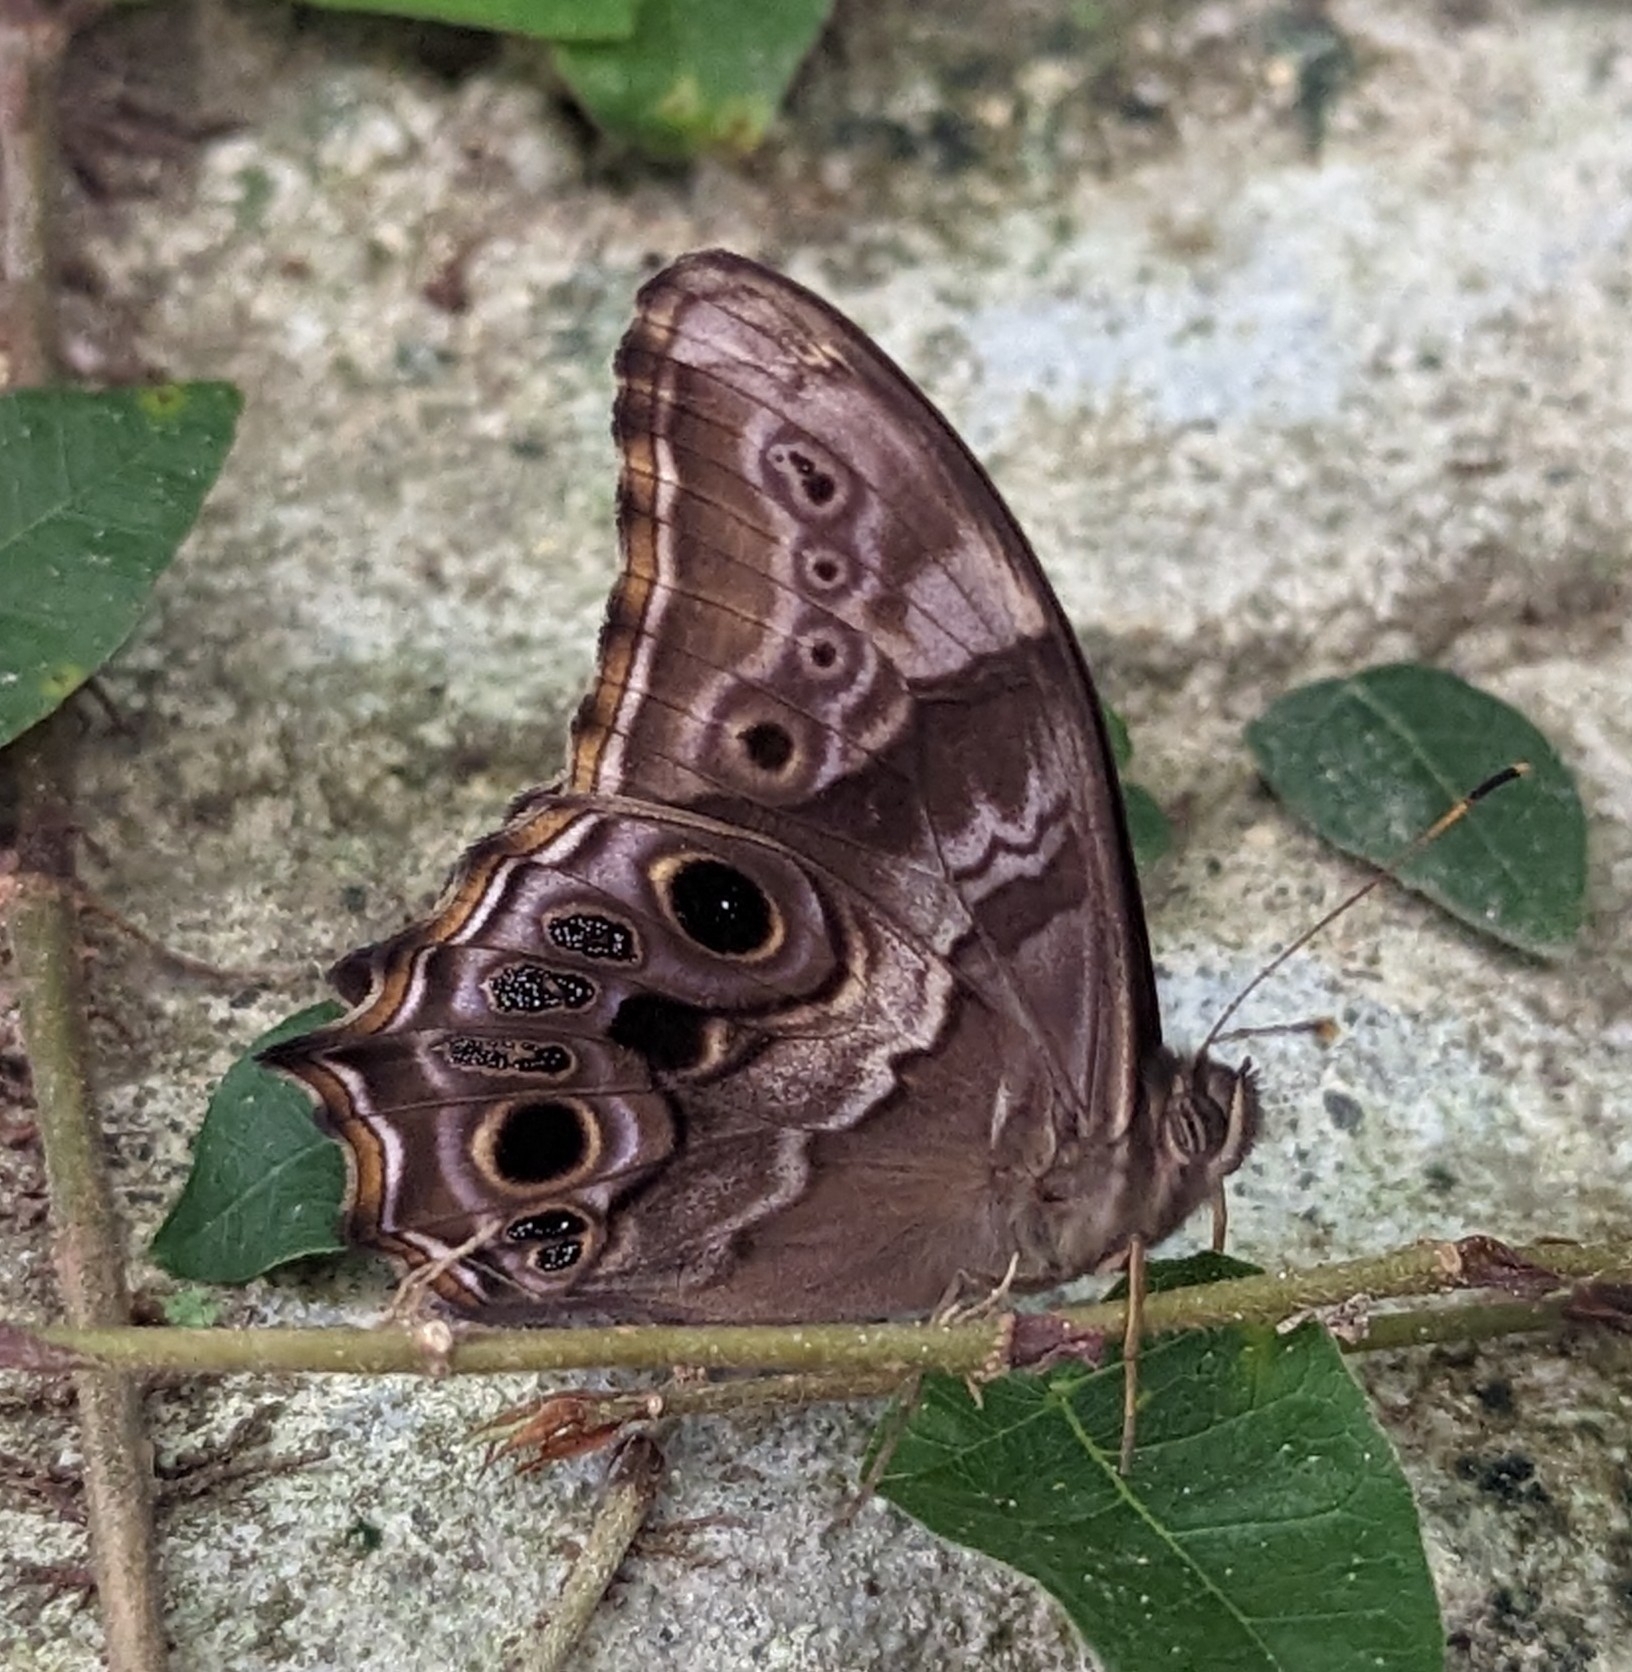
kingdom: Animalia
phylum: Arthropoda
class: Insecta
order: Lepidoptera
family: Nymphalidae
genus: Lethe
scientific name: Lethe drypetis
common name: Tamil treebrown
